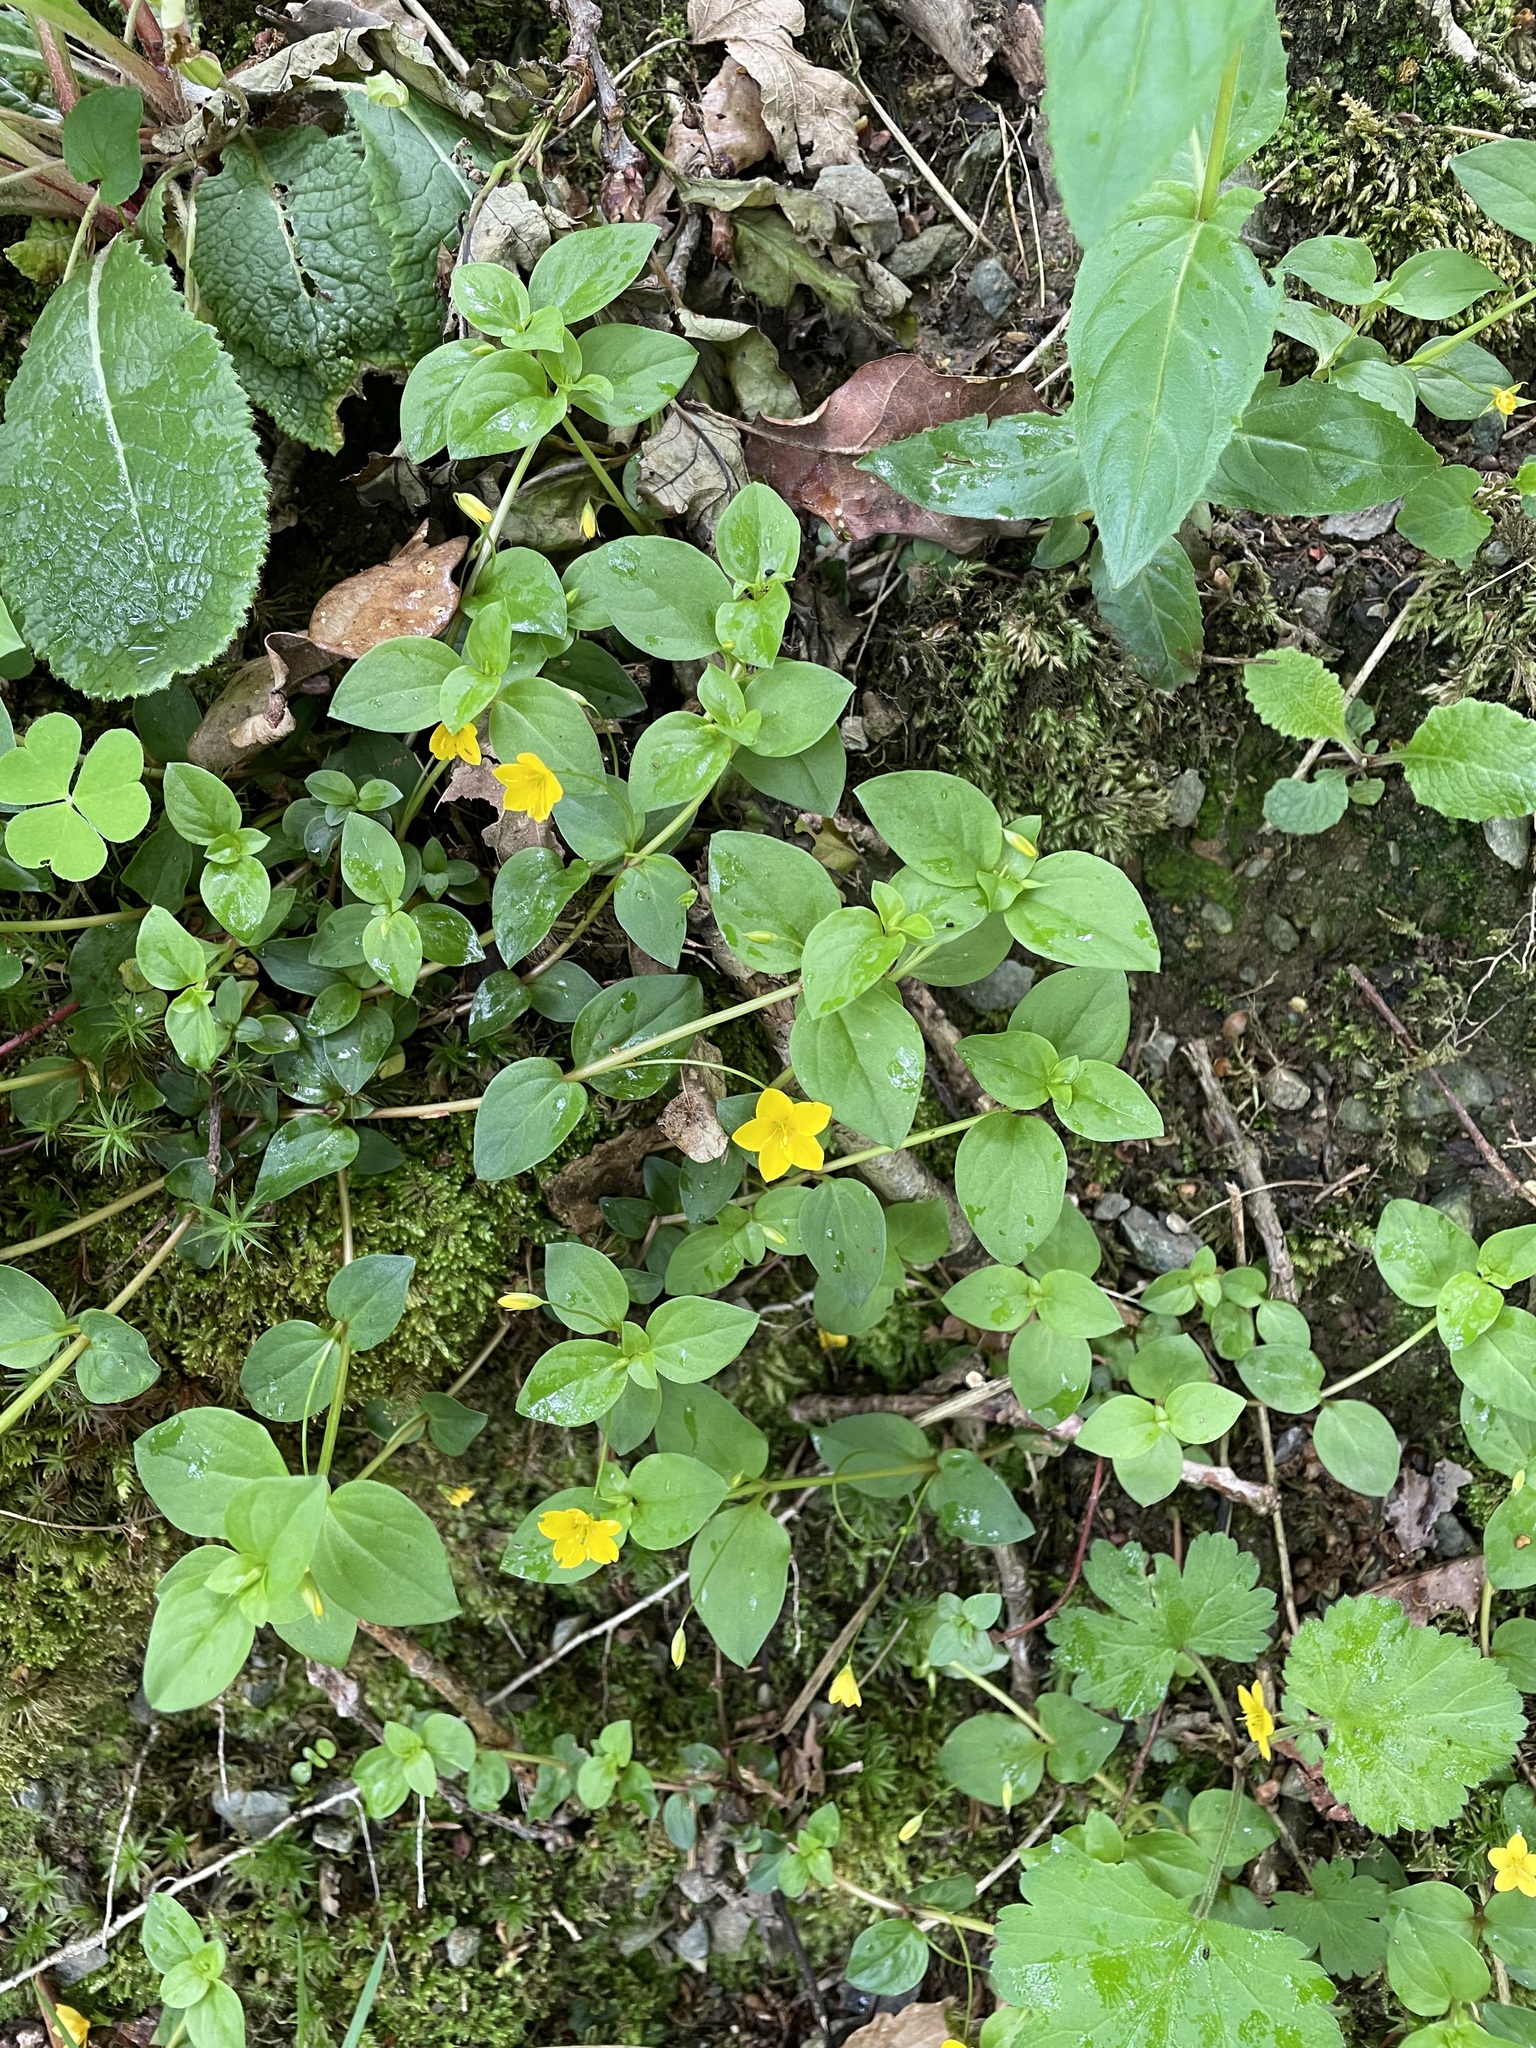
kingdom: Plantae
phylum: Tracheophyta
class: Magnoliopsida
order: Ericales
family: Primulaceae
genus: Lysimachia
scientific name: Lysimachia nemorum
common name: Yellow pimpernel
